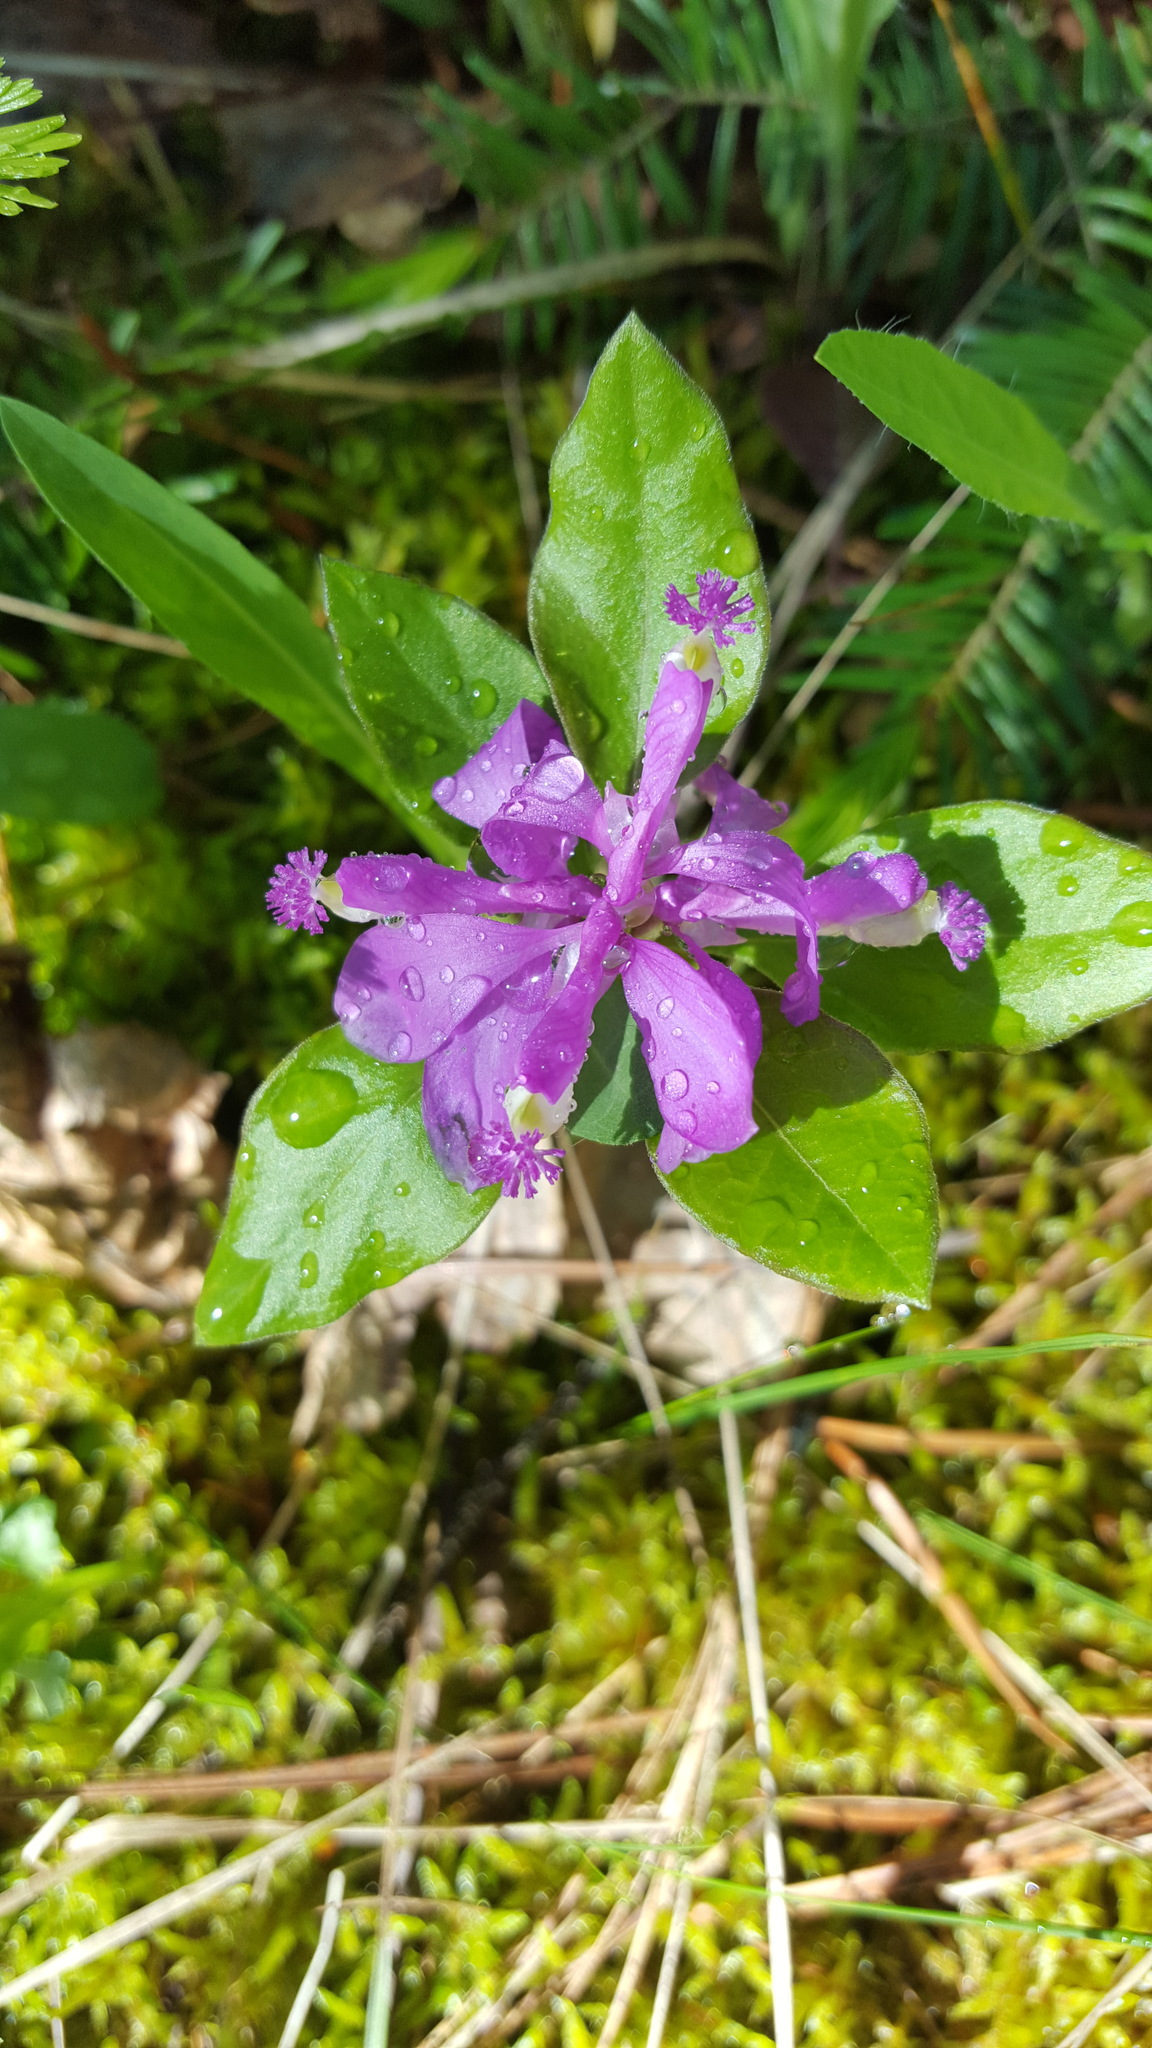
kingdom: Plantae
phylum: Tracheophyta
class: Magnoliopsida
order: Fabales
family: Polygalaceae
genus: Polygaloides
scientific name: Polygaloides paucifolia
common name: Bird-on-the-wing
